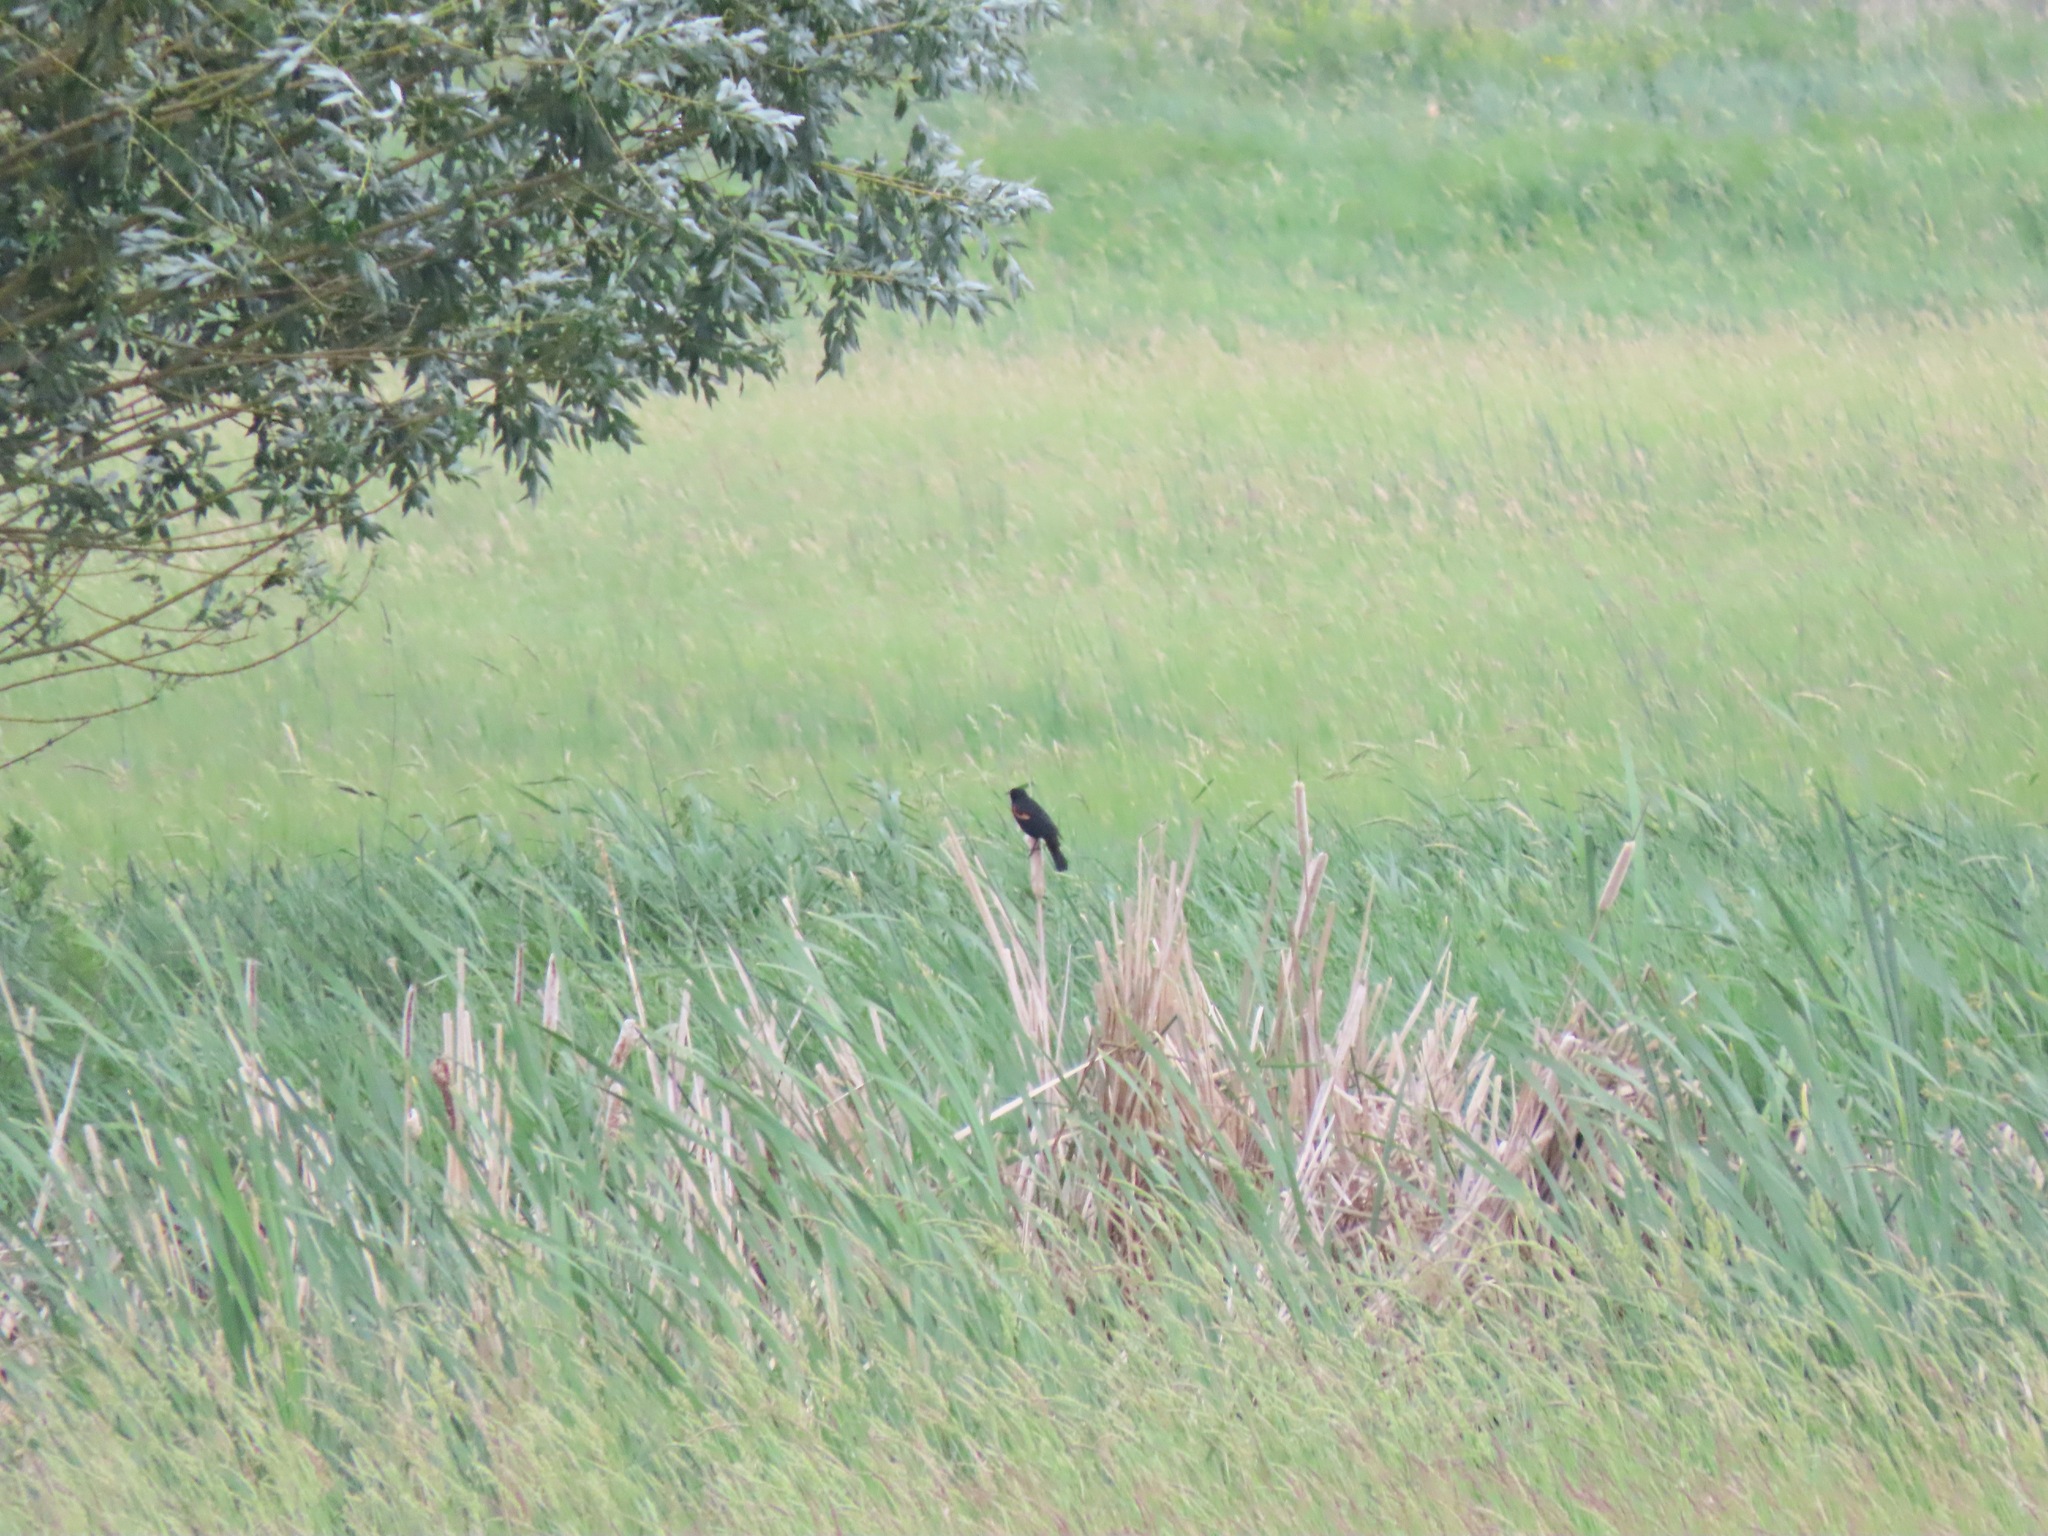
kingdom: Animalia
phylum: Chordata
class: Aves
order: Passeriformes
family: Icteridae
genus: Agelaius
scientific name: Agelaius phoeniceus
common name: Red-winged blackbird
